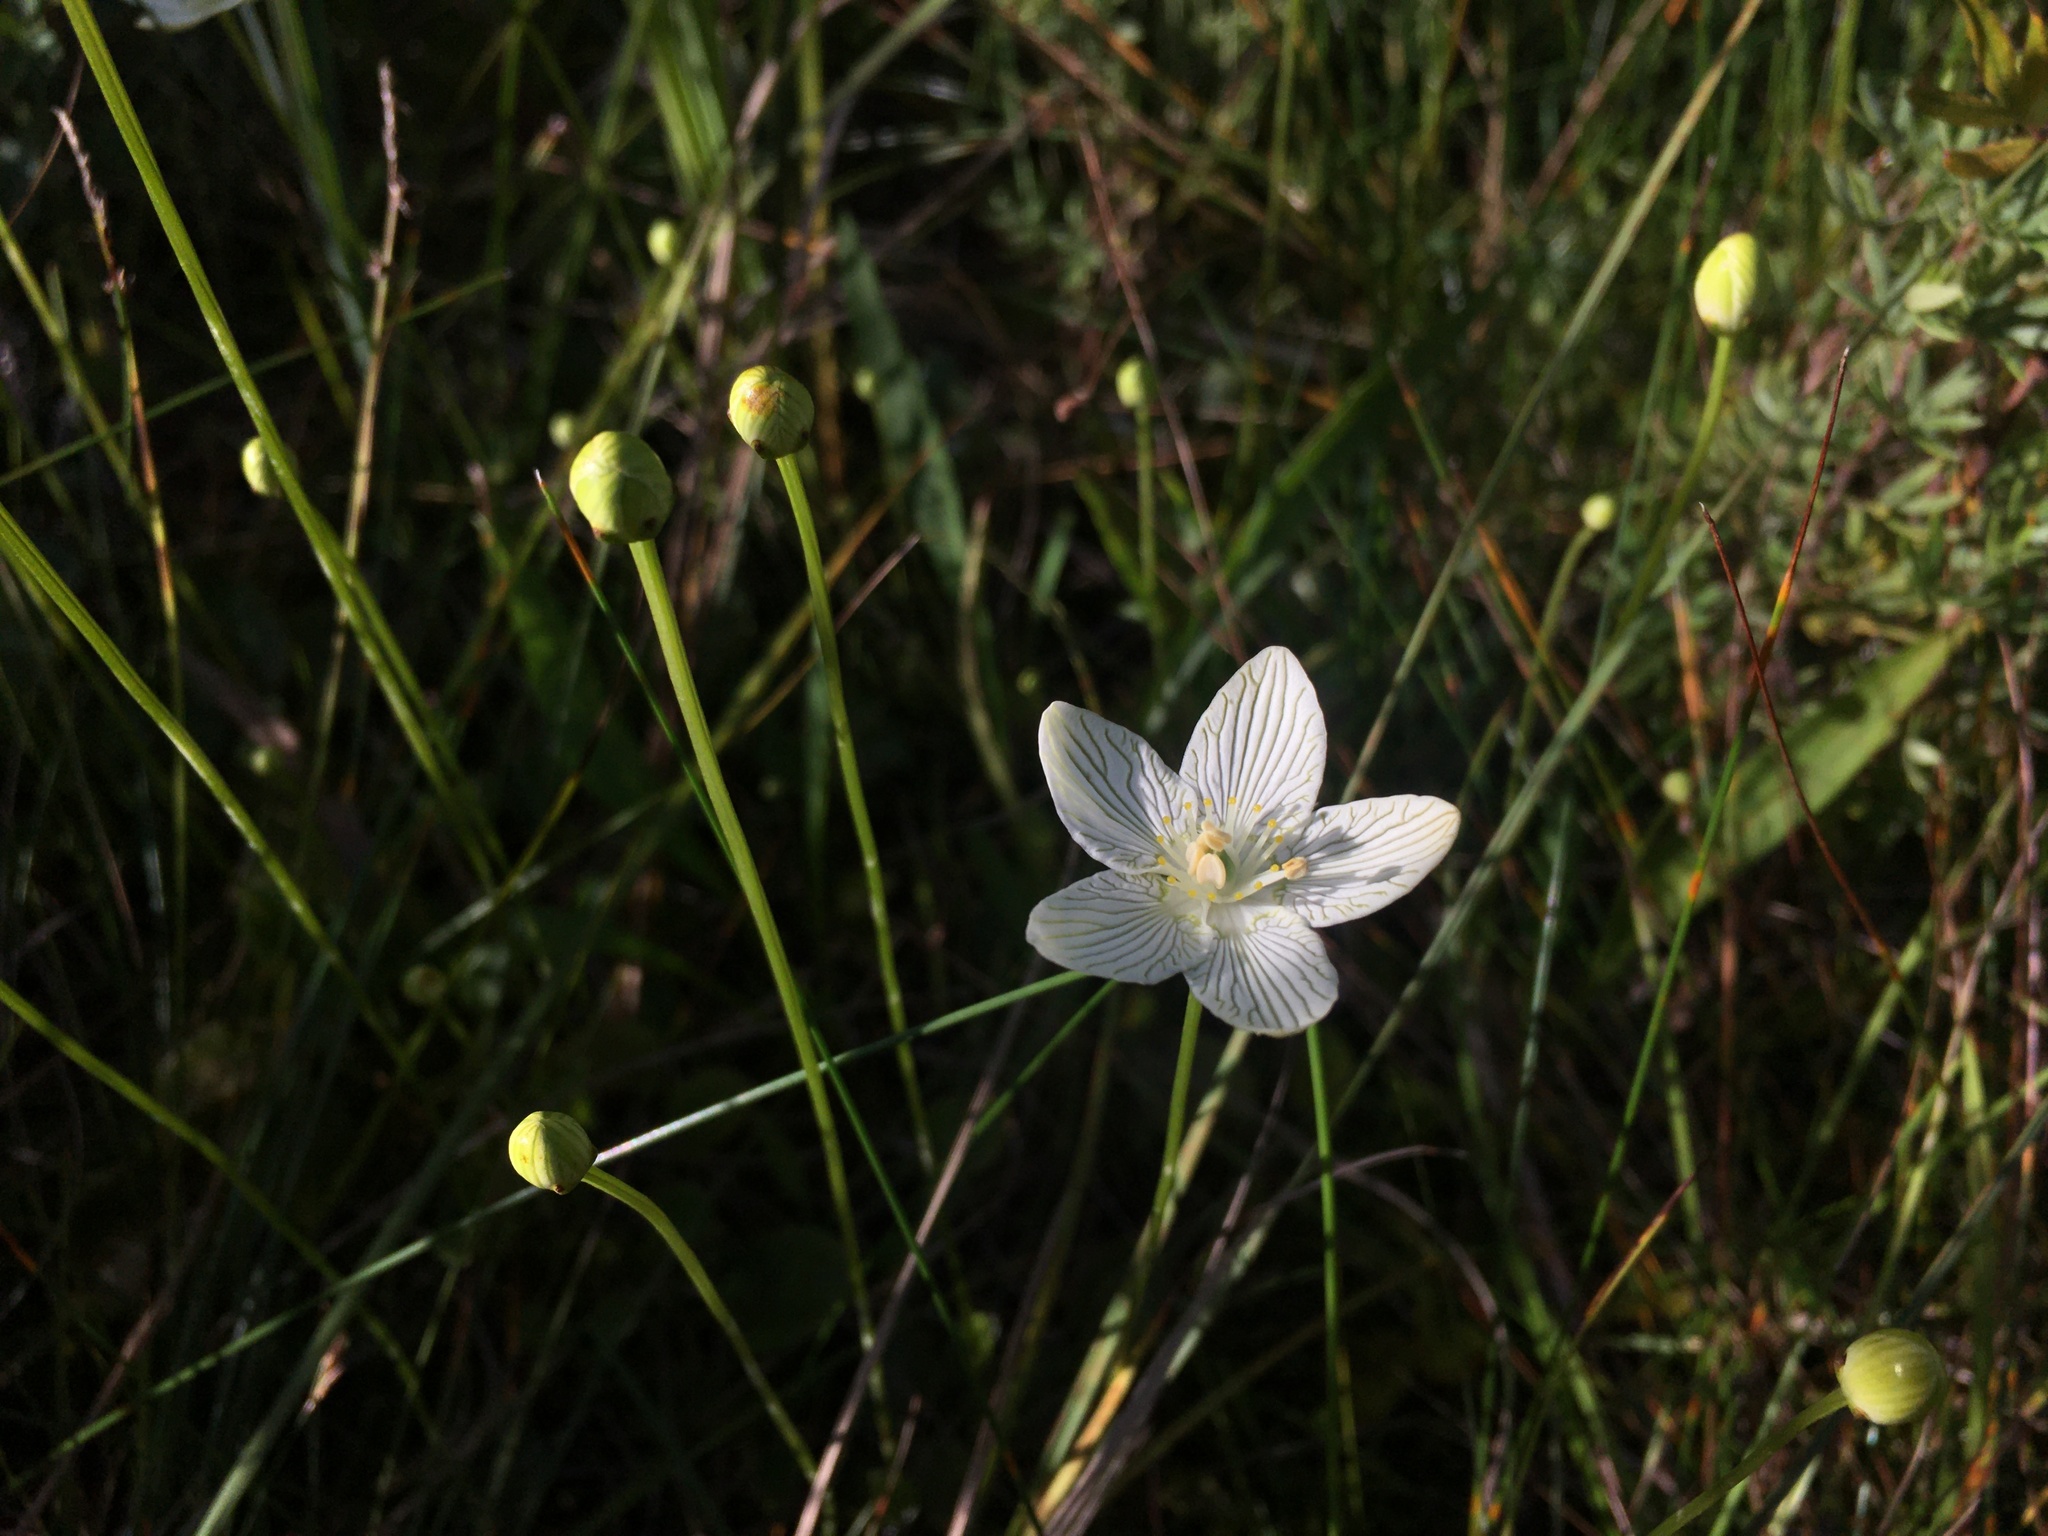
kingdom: Plantae
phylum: Tracheophyta
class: Magnoliopsida
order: Celastrales
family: Parnassiaceae
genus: Parnassia
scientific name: Parnassia glauca
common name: American grass-of-parnassus
